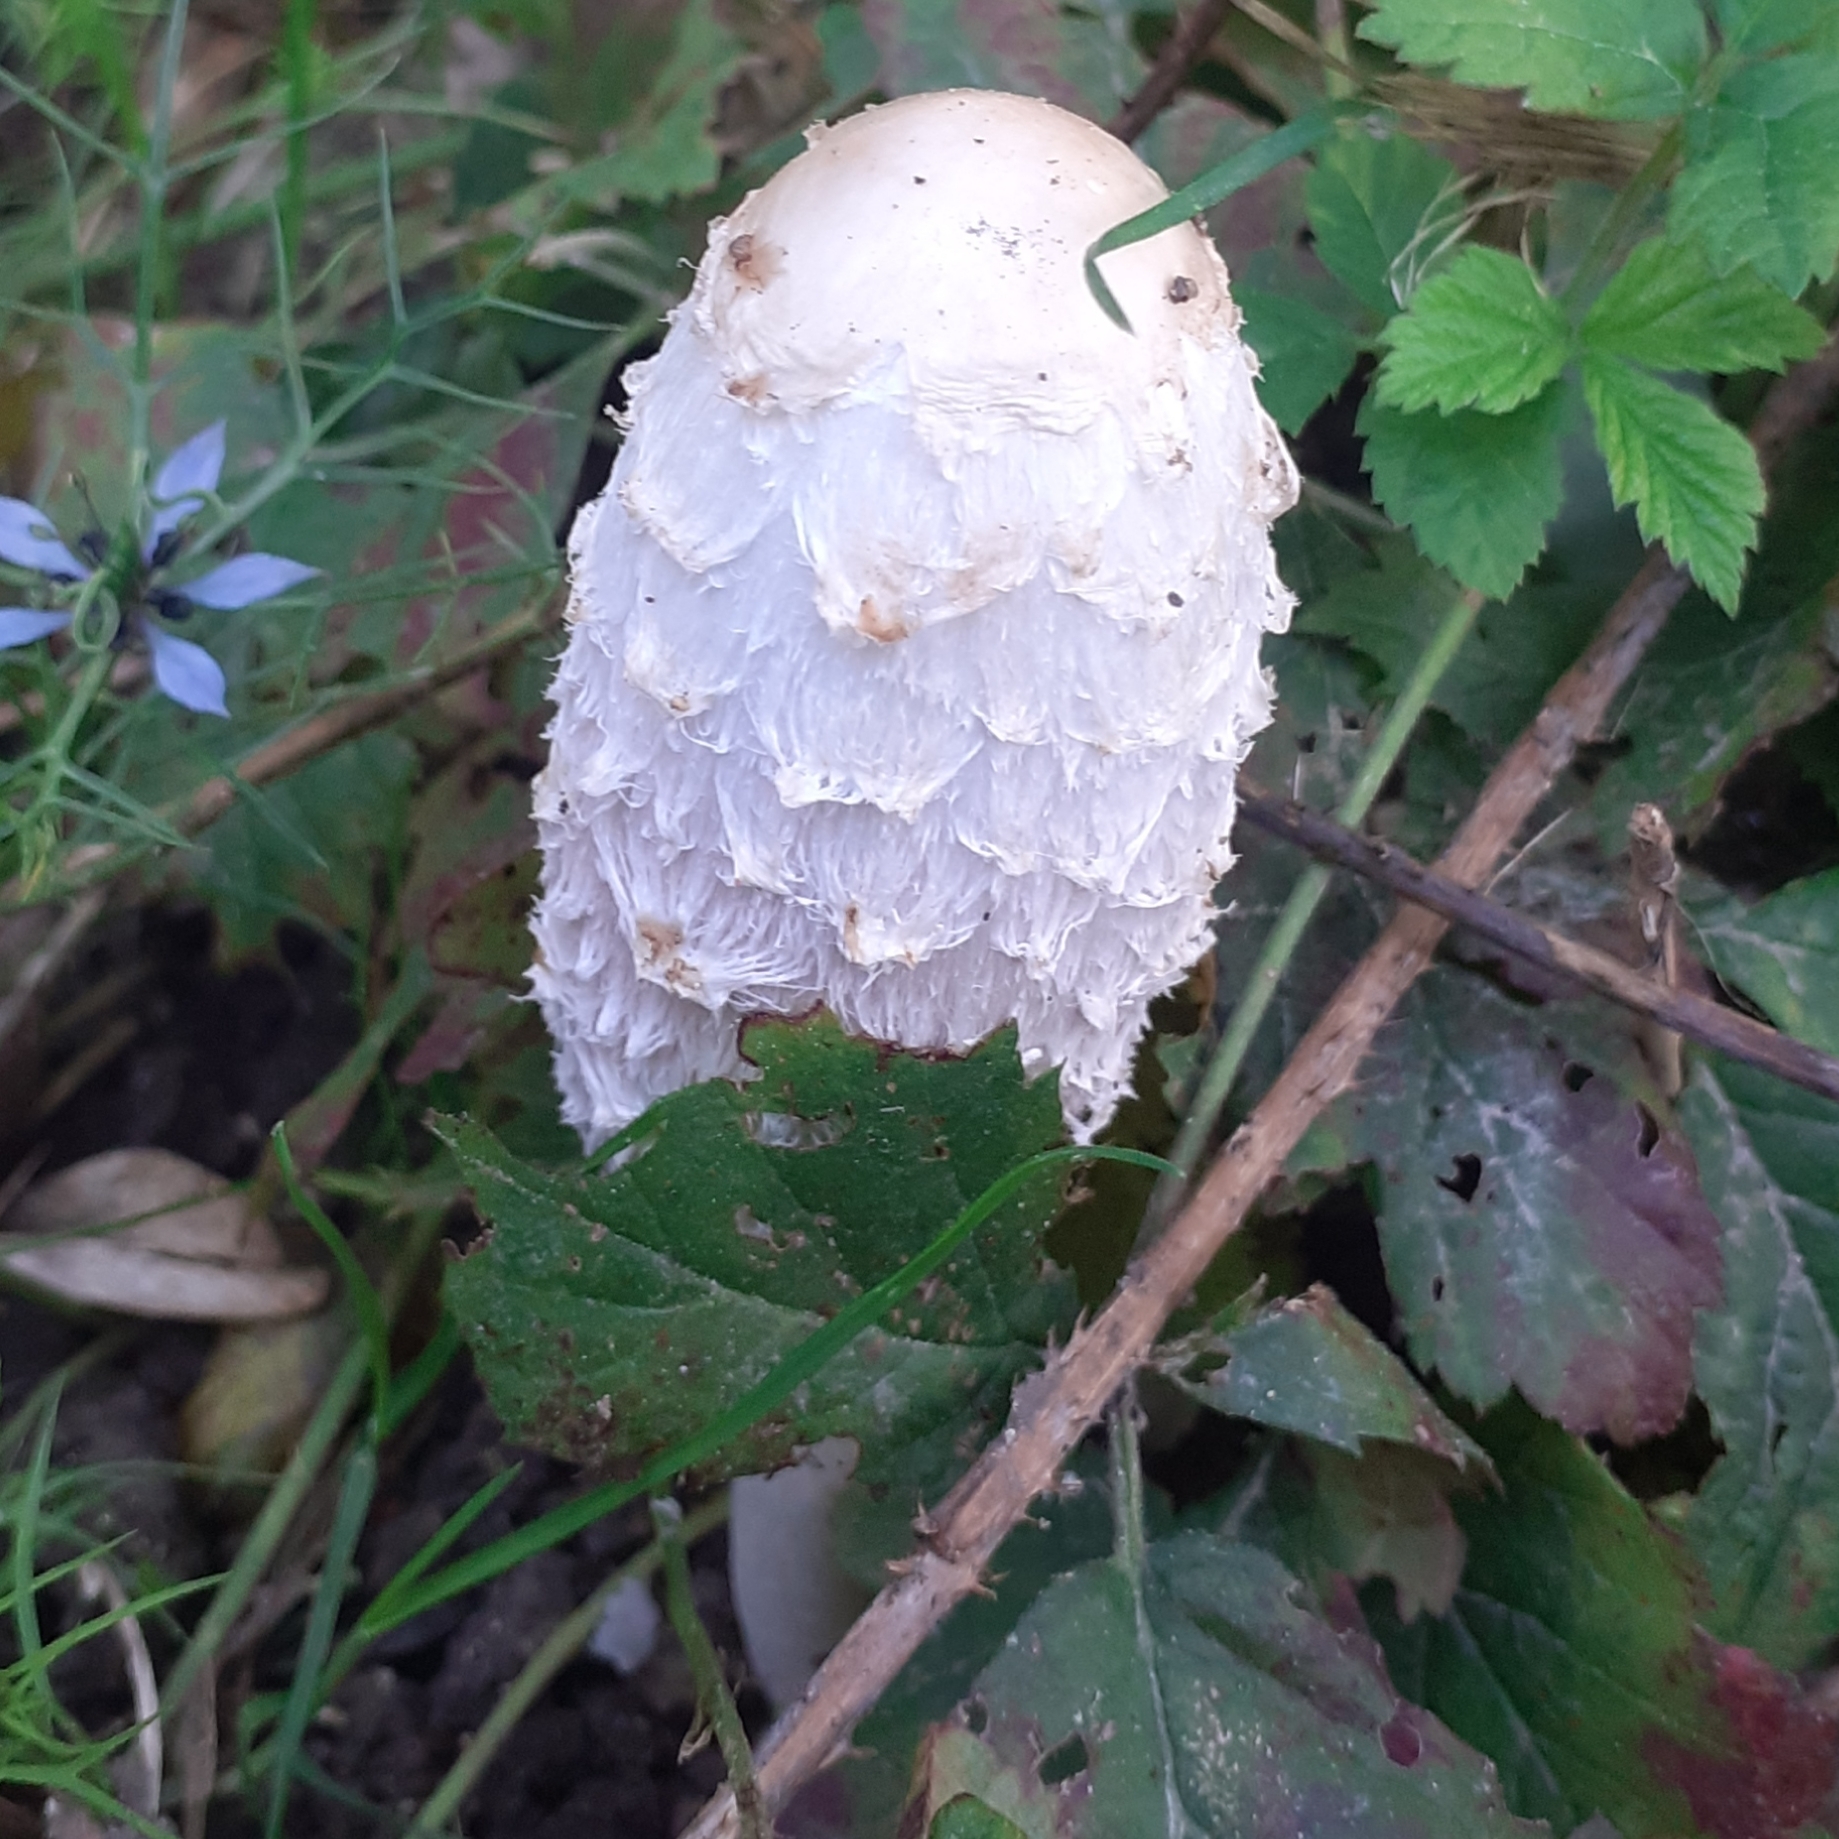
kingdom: Fungi
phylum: Basidiomycota
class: Agaricomycetes
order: Agaricales
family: Agaricaceae
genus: Coprinus
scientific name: Coprinus comatus
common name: Lawyer's wig
